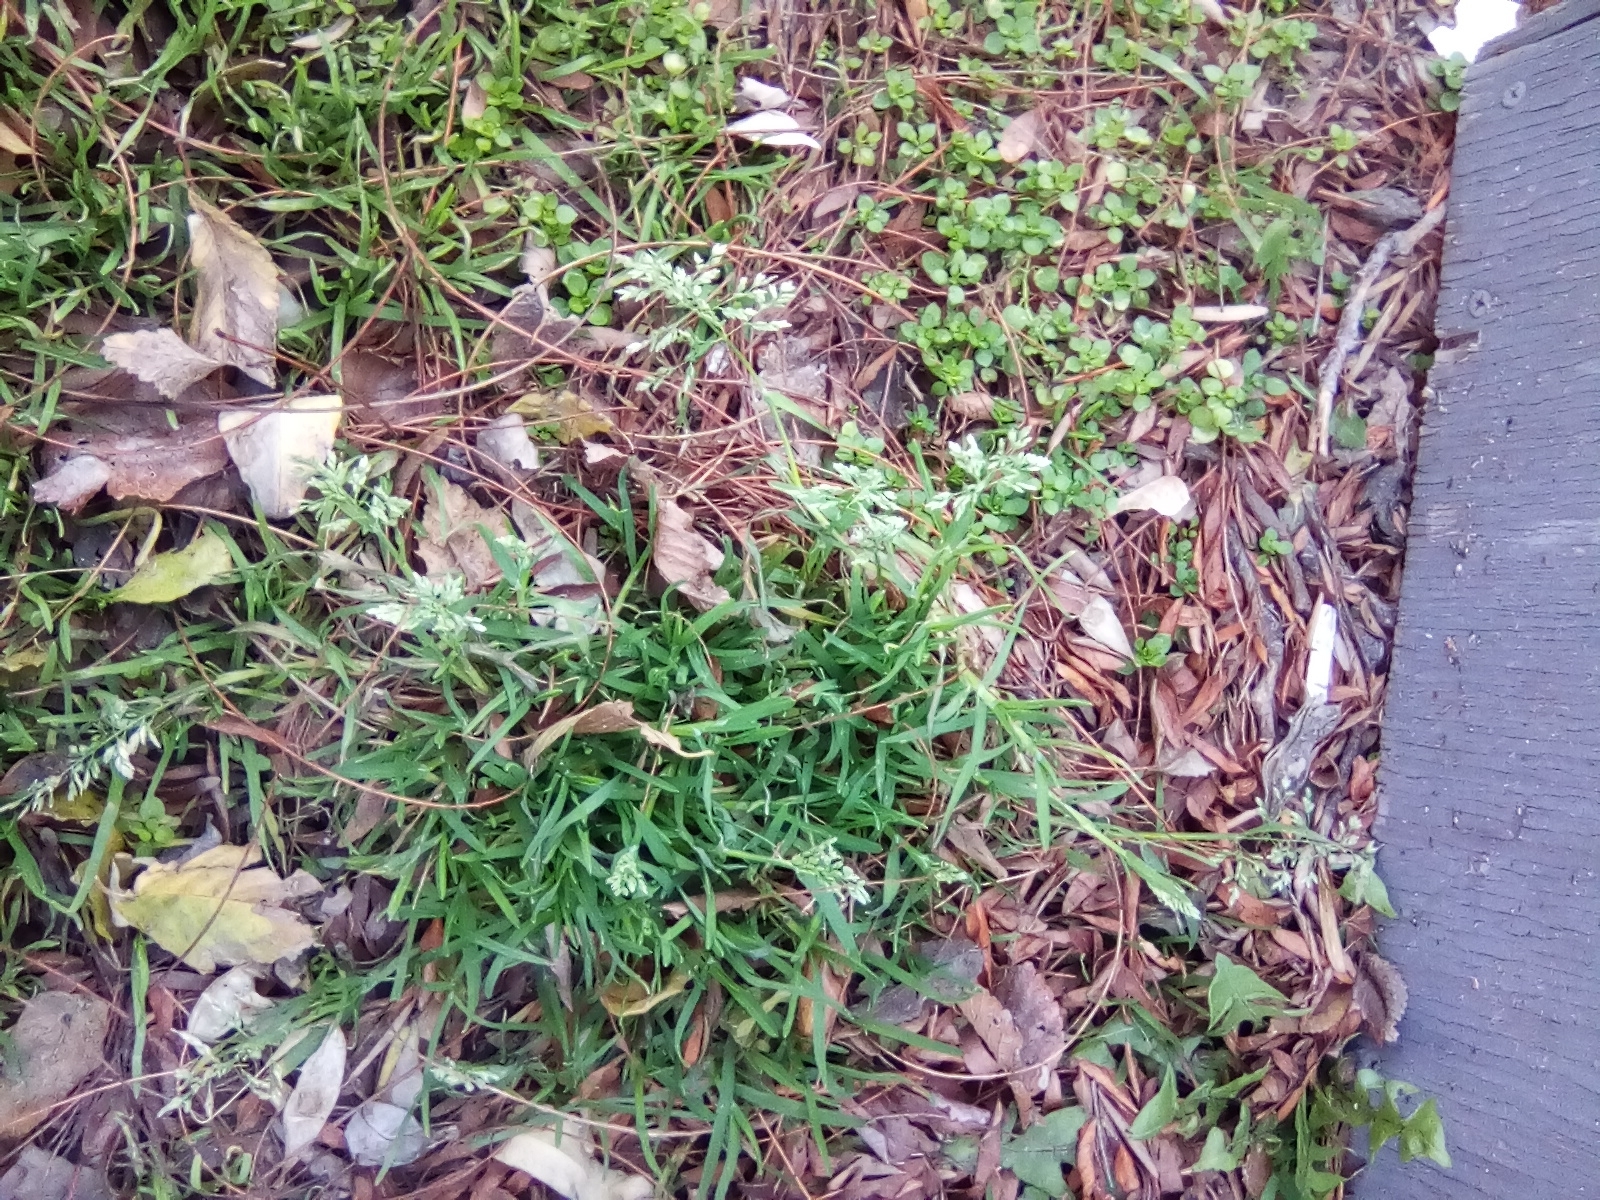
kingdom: Plantae
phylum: Tracheophyta
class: Liliopsida
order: Poales
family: Poaceae
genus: Poa
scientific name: Poa annua
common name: Annual bluegrass
